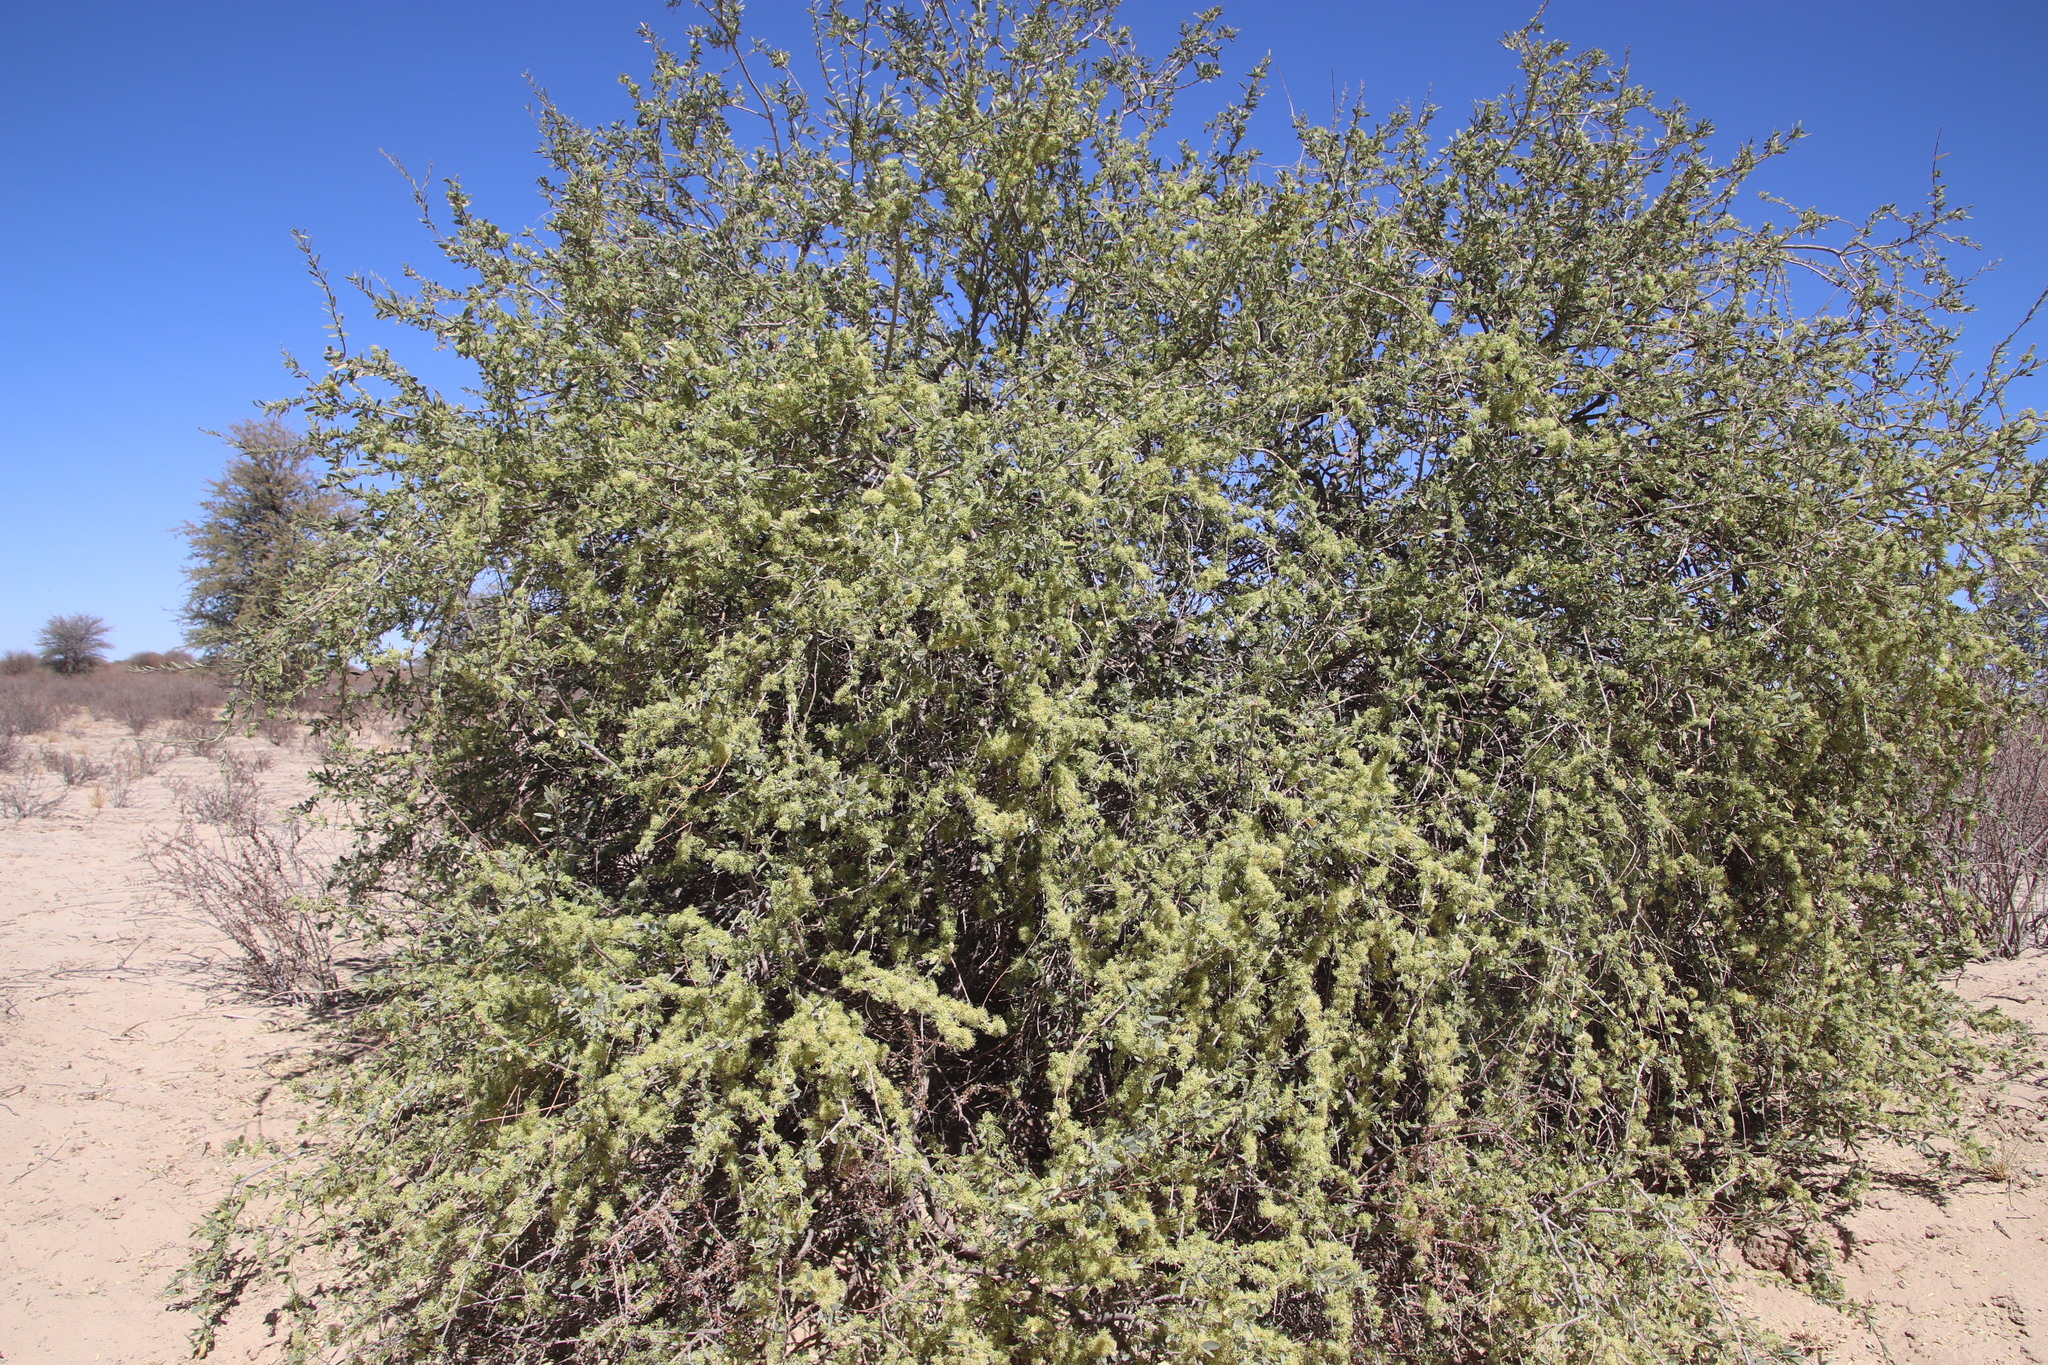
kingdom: Plantae
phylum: Tracheophyta
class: Magnoliopsida
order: Brassicales
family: Capparaceae
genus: Boscia
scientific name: Boscia albitrunca
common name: Caper bush
